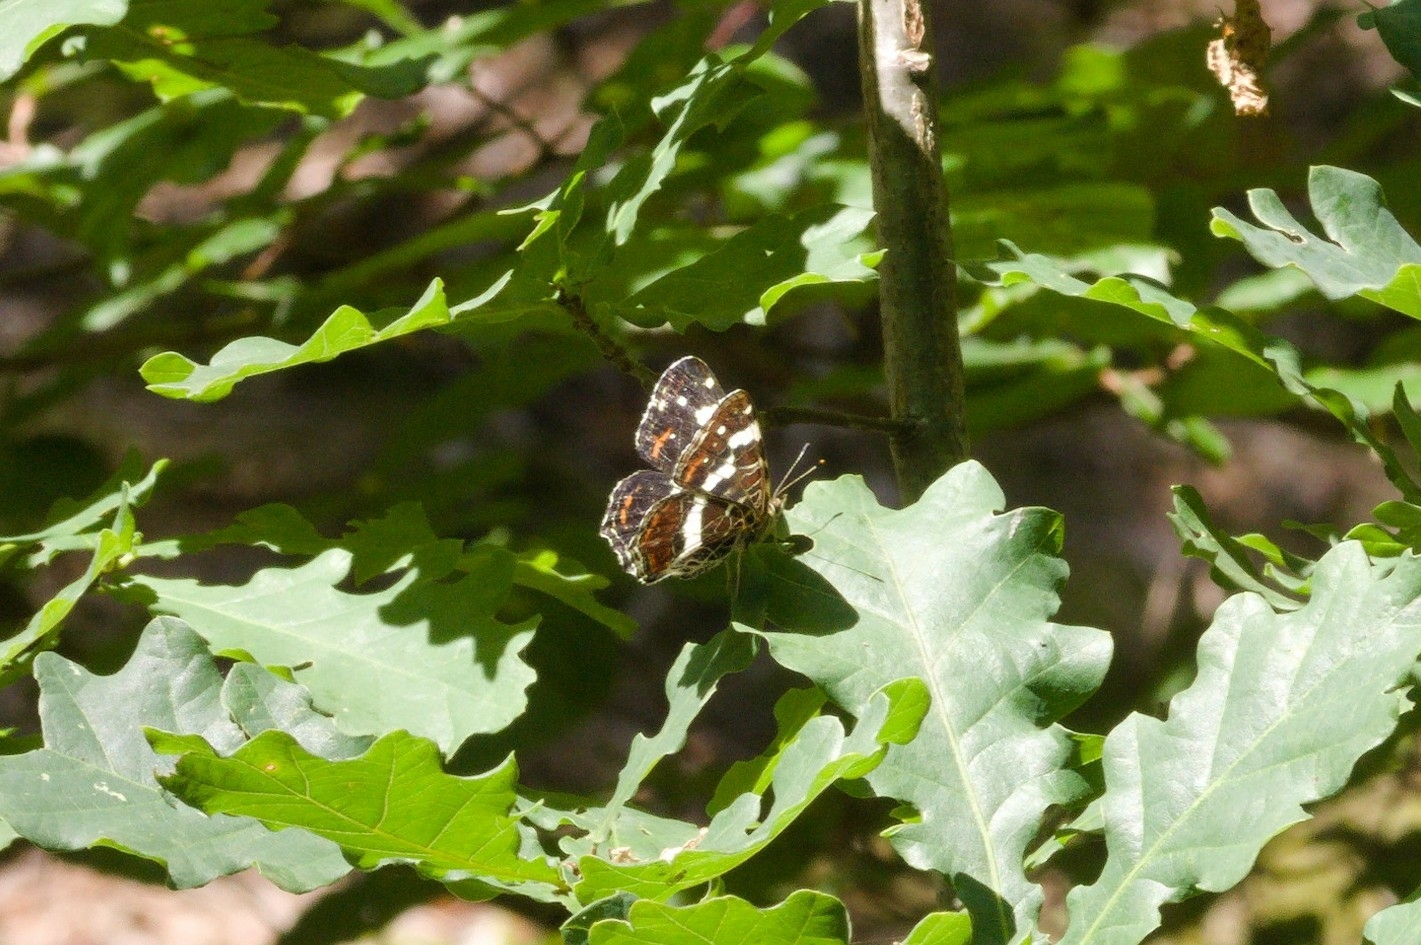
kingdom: Animalia
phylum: Arthropoda
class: Insecta
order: Lepidoptera
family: Nymphalidae
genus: Araschnia
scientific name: Araschnia levana
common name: Map butterfly
